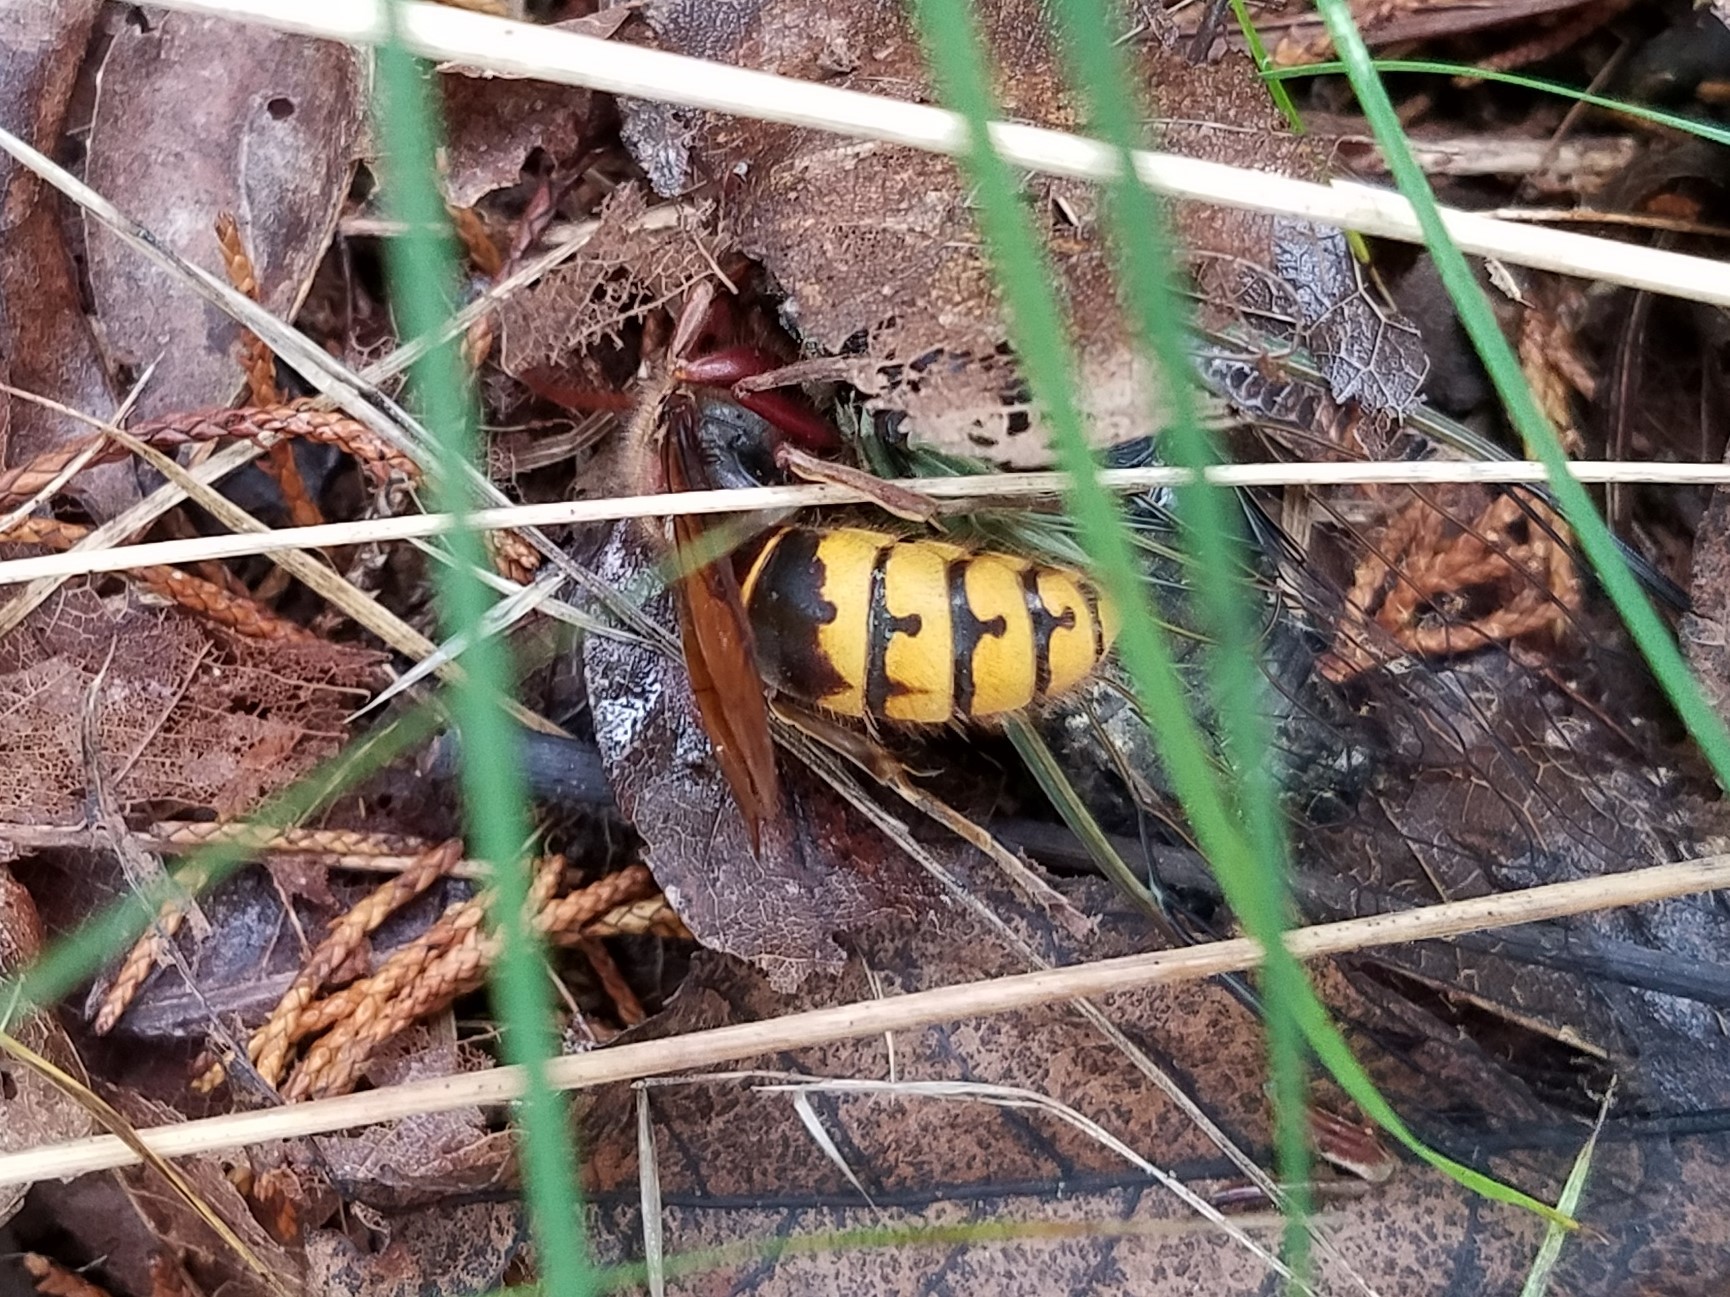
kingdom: Animalia
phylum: Arthropoda
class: Insecta
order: Hymenoptera
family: Vespidae
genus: Vespa
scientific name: Vespa crabro
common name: Hornet
